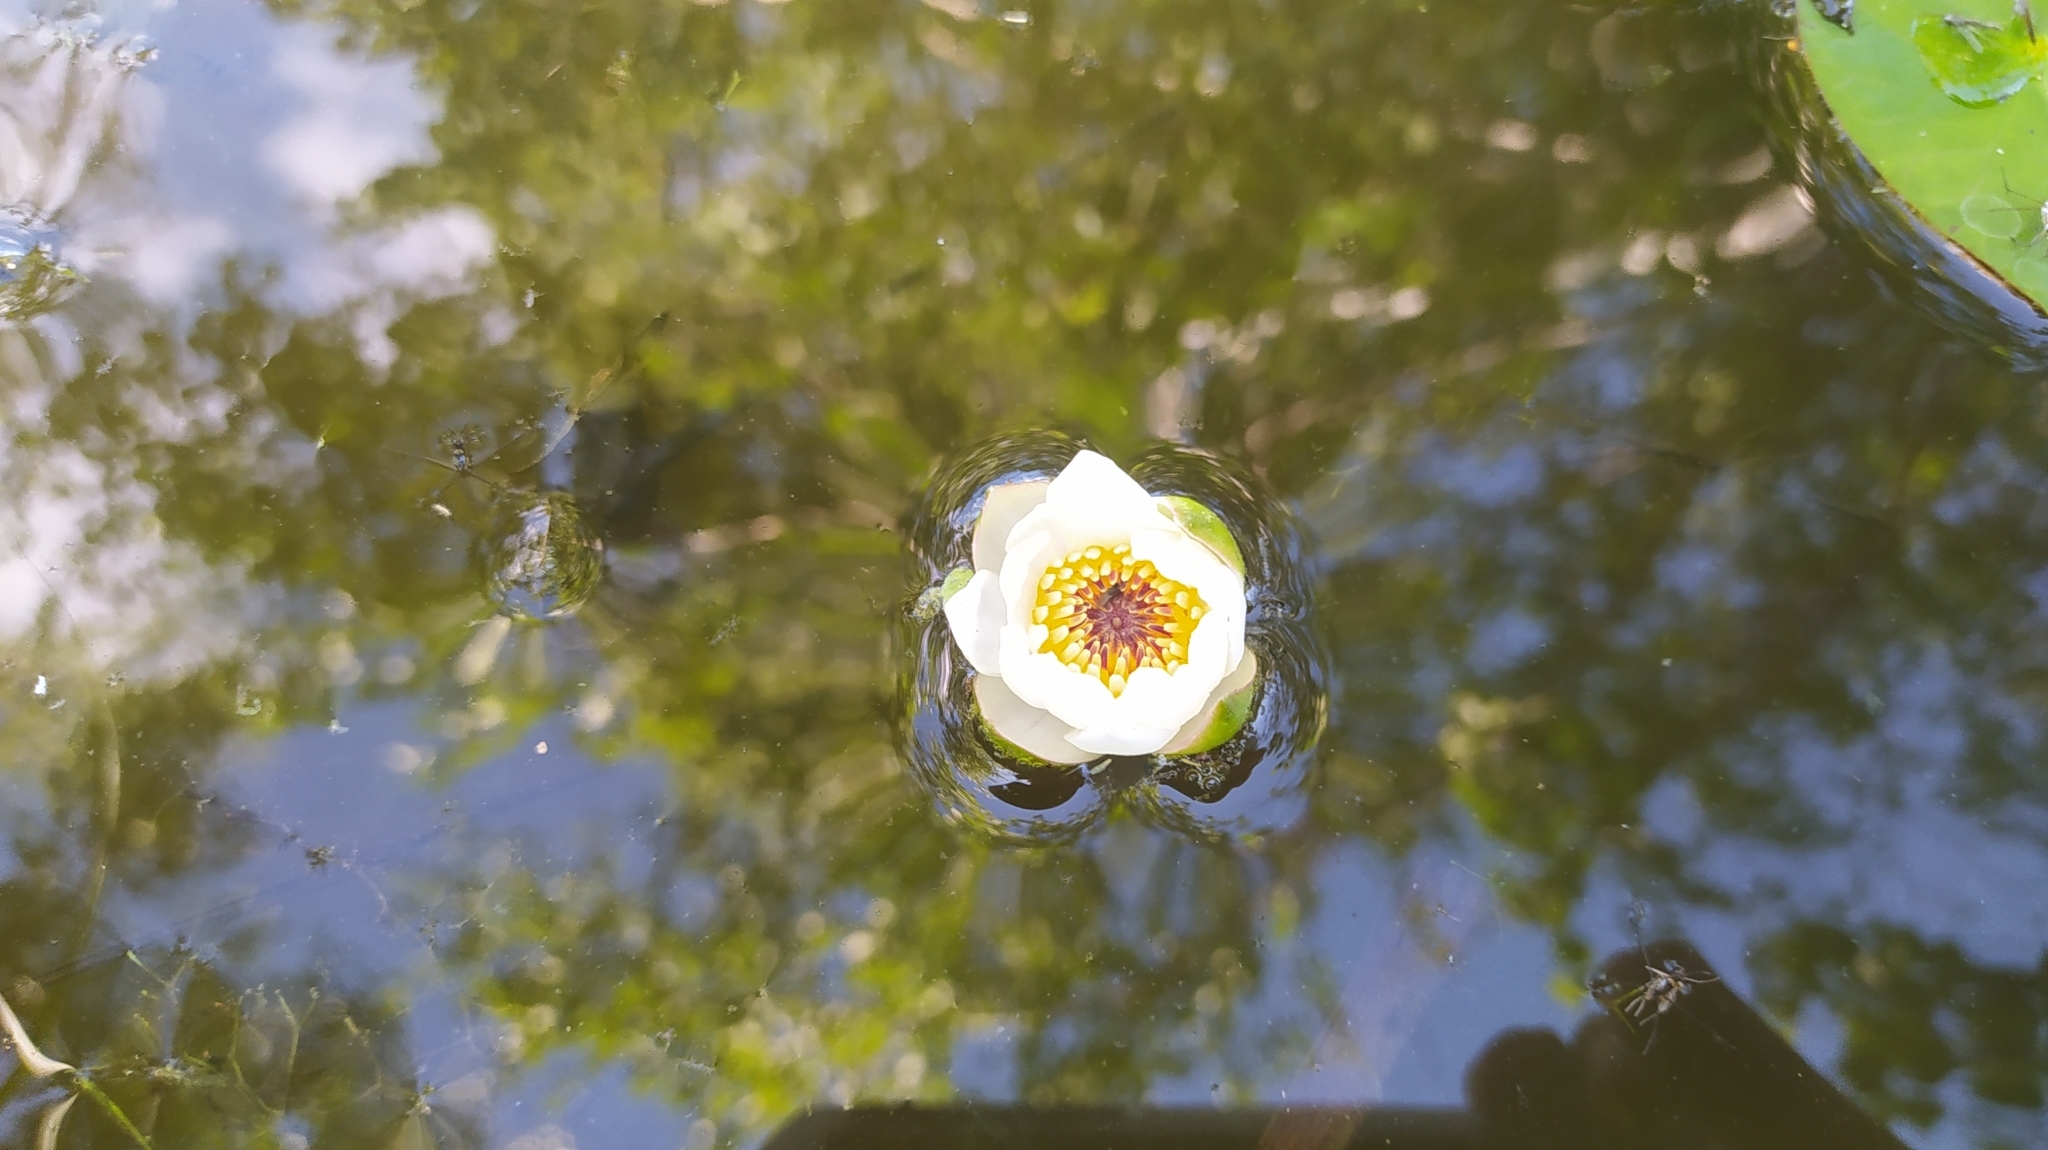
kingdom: Plantae
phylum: Tracheophyta
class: Magnoliopsida
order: Nymphaeales
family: Nymphaeaceae
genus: Nymphaea
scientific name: Nymphaea tetragona
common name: Pygmy water-lily
